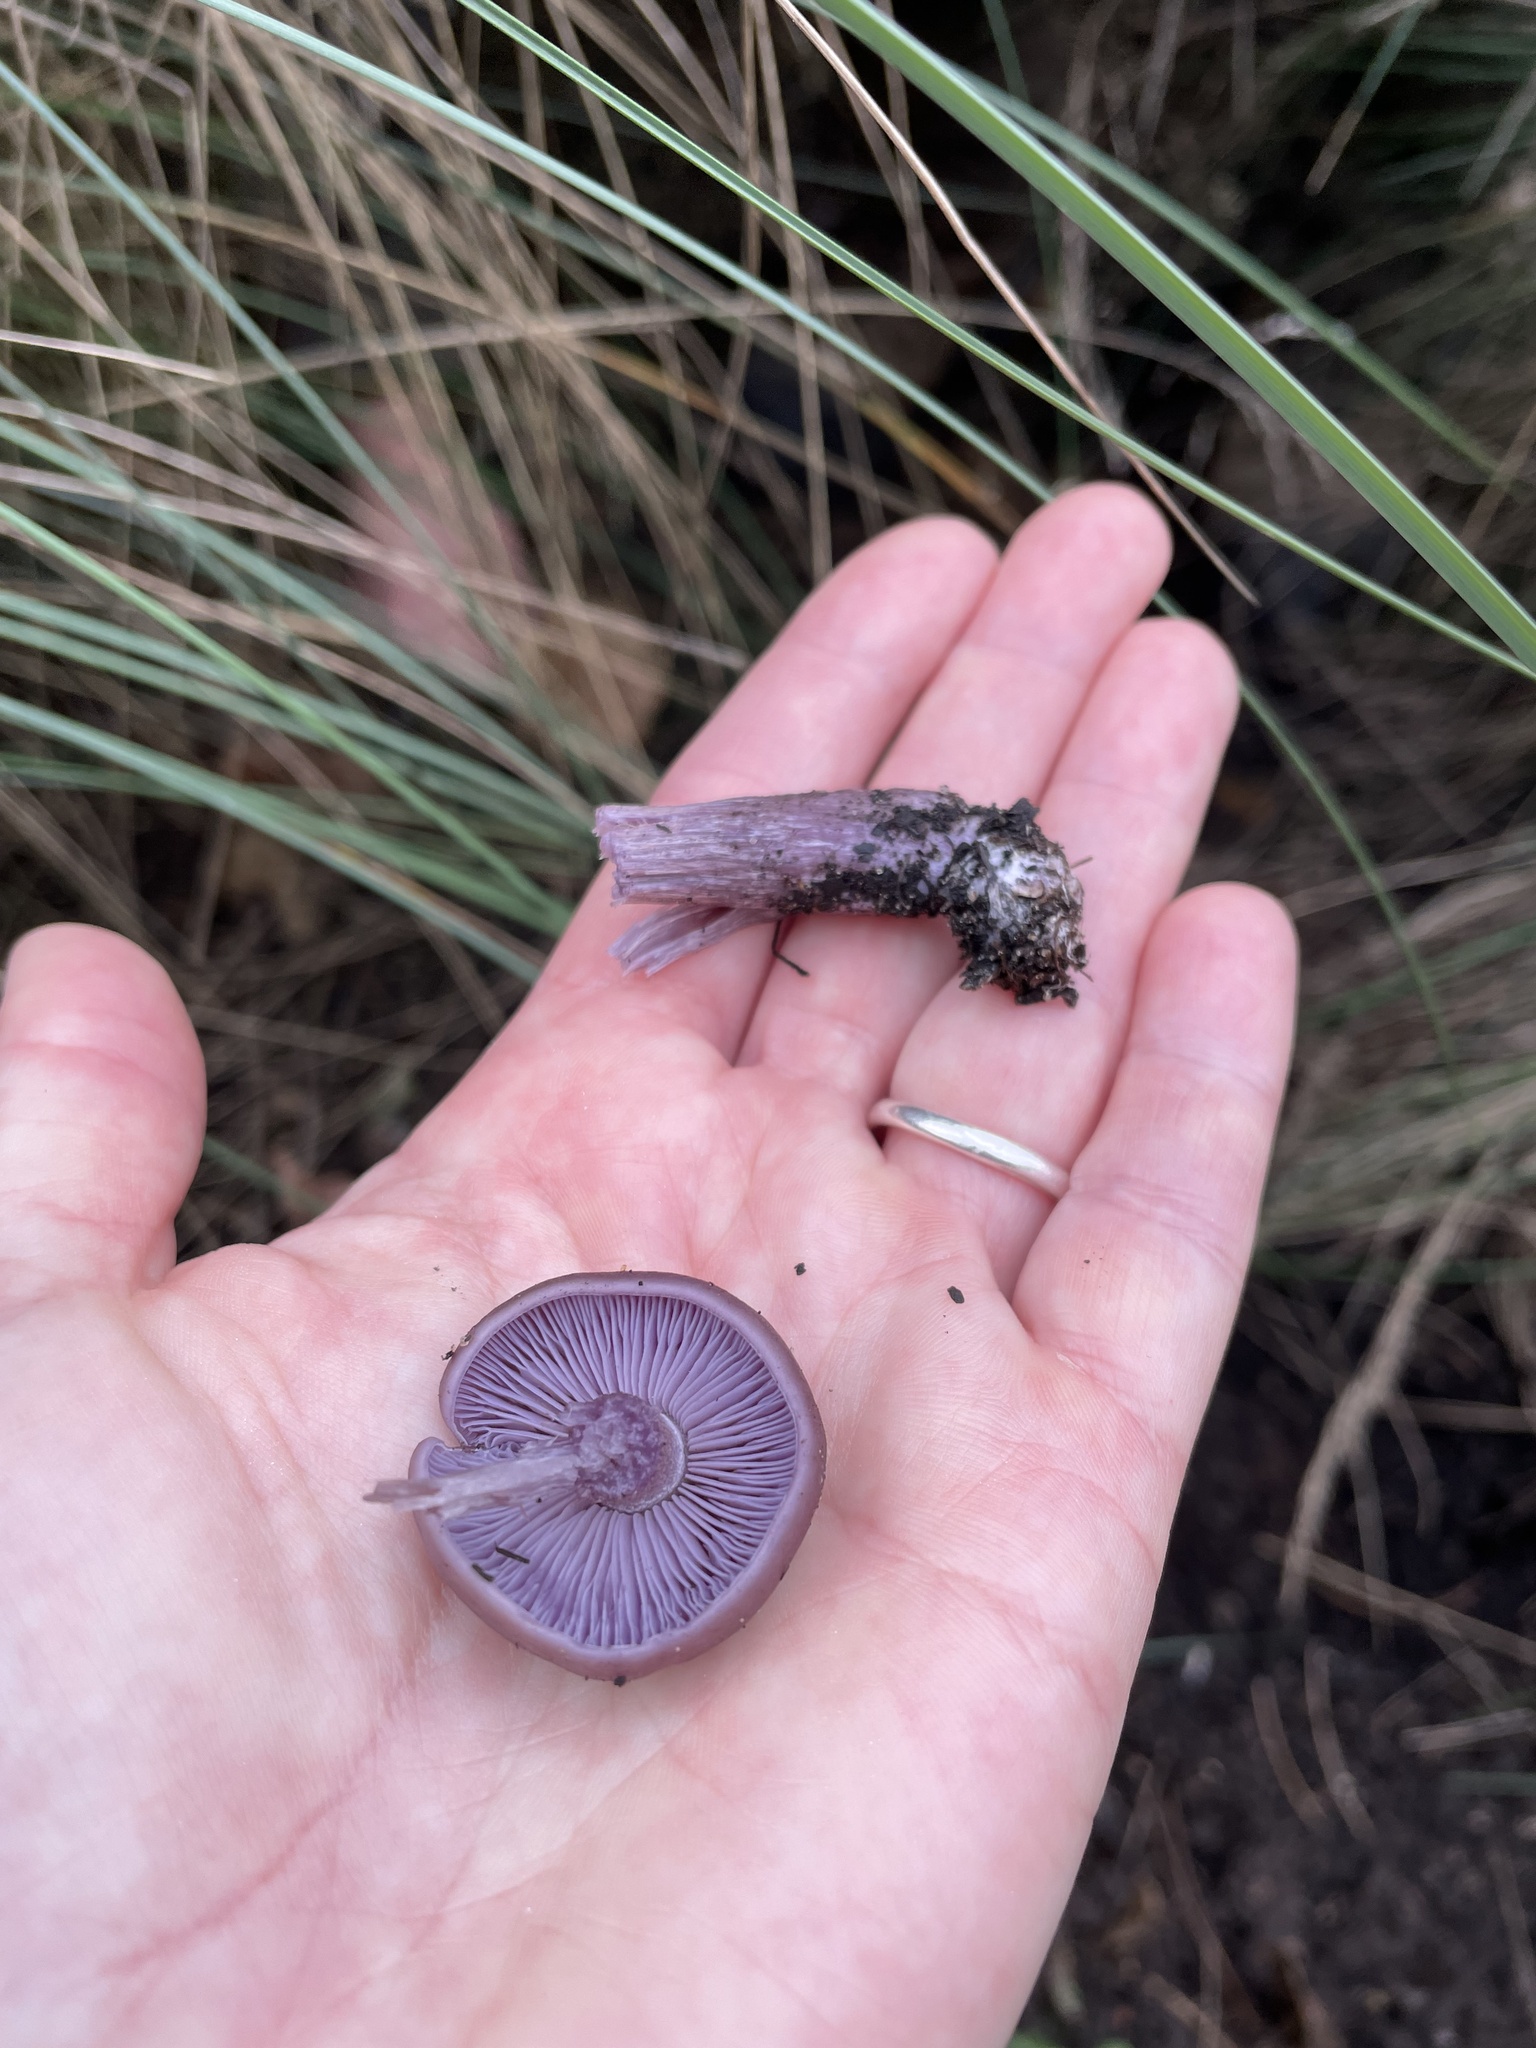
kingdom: Fungi
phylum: Basidiomycota
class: Agaricomycetes
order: Agaricales
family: Tricholomataceae
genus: Collybia
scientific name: Collybia
